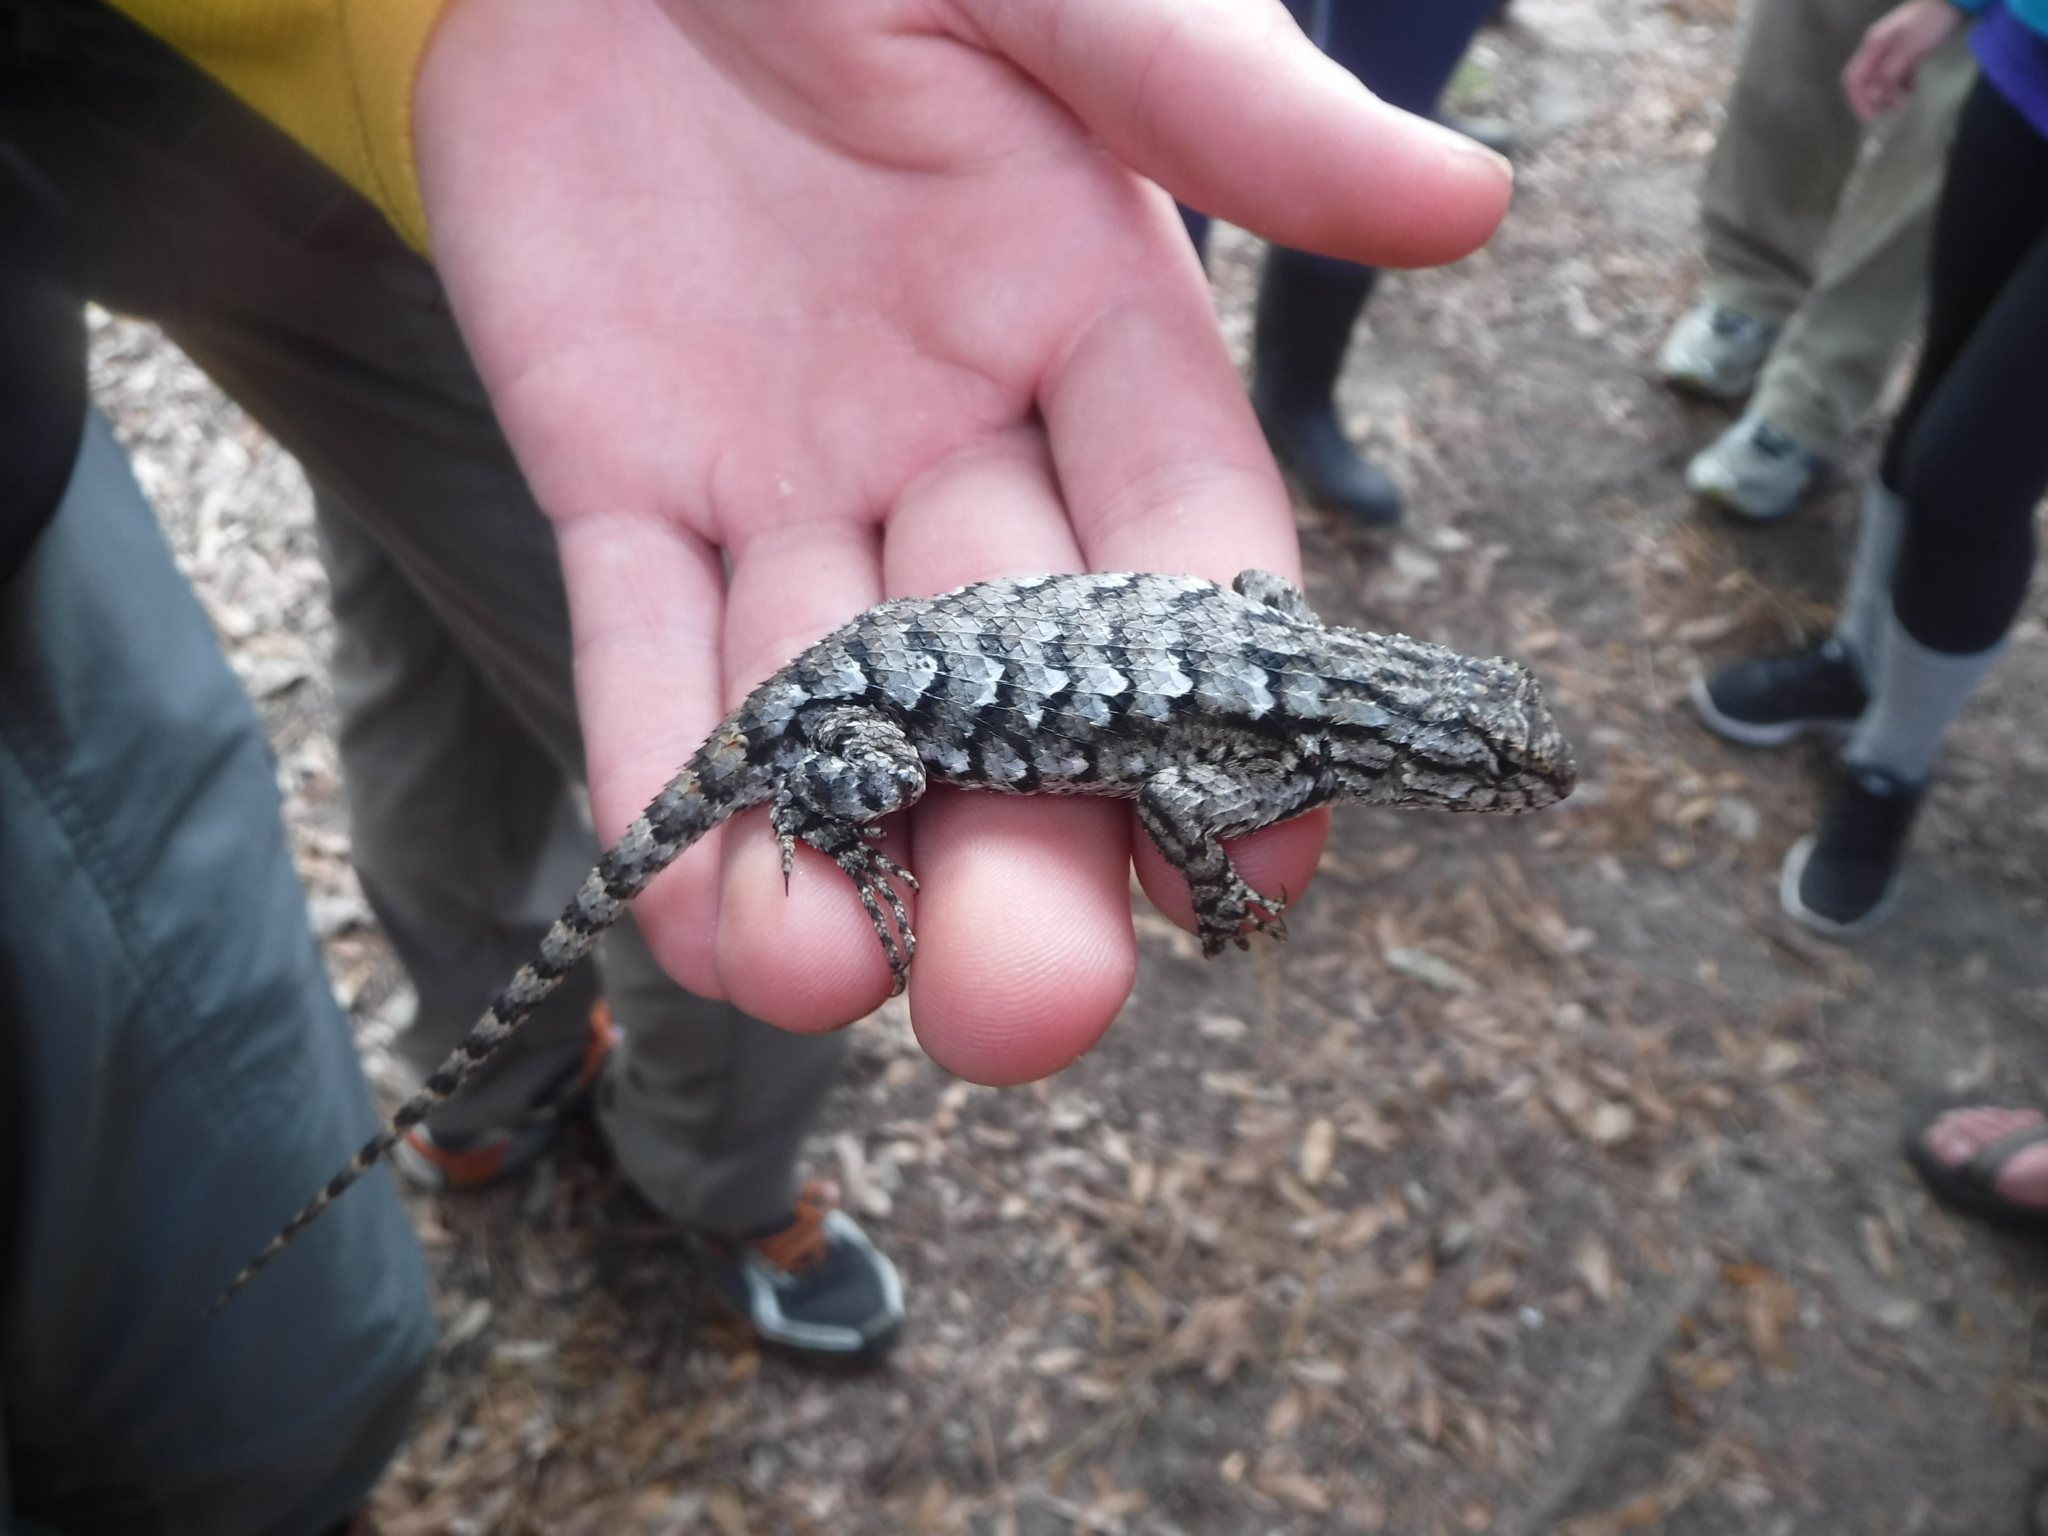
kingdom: Animalia
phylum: Chordata
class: Squamata
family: Phrynosomatidae
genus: Sceloporus
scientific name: Sceloporus undulatus
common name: Eastern fence lizard
